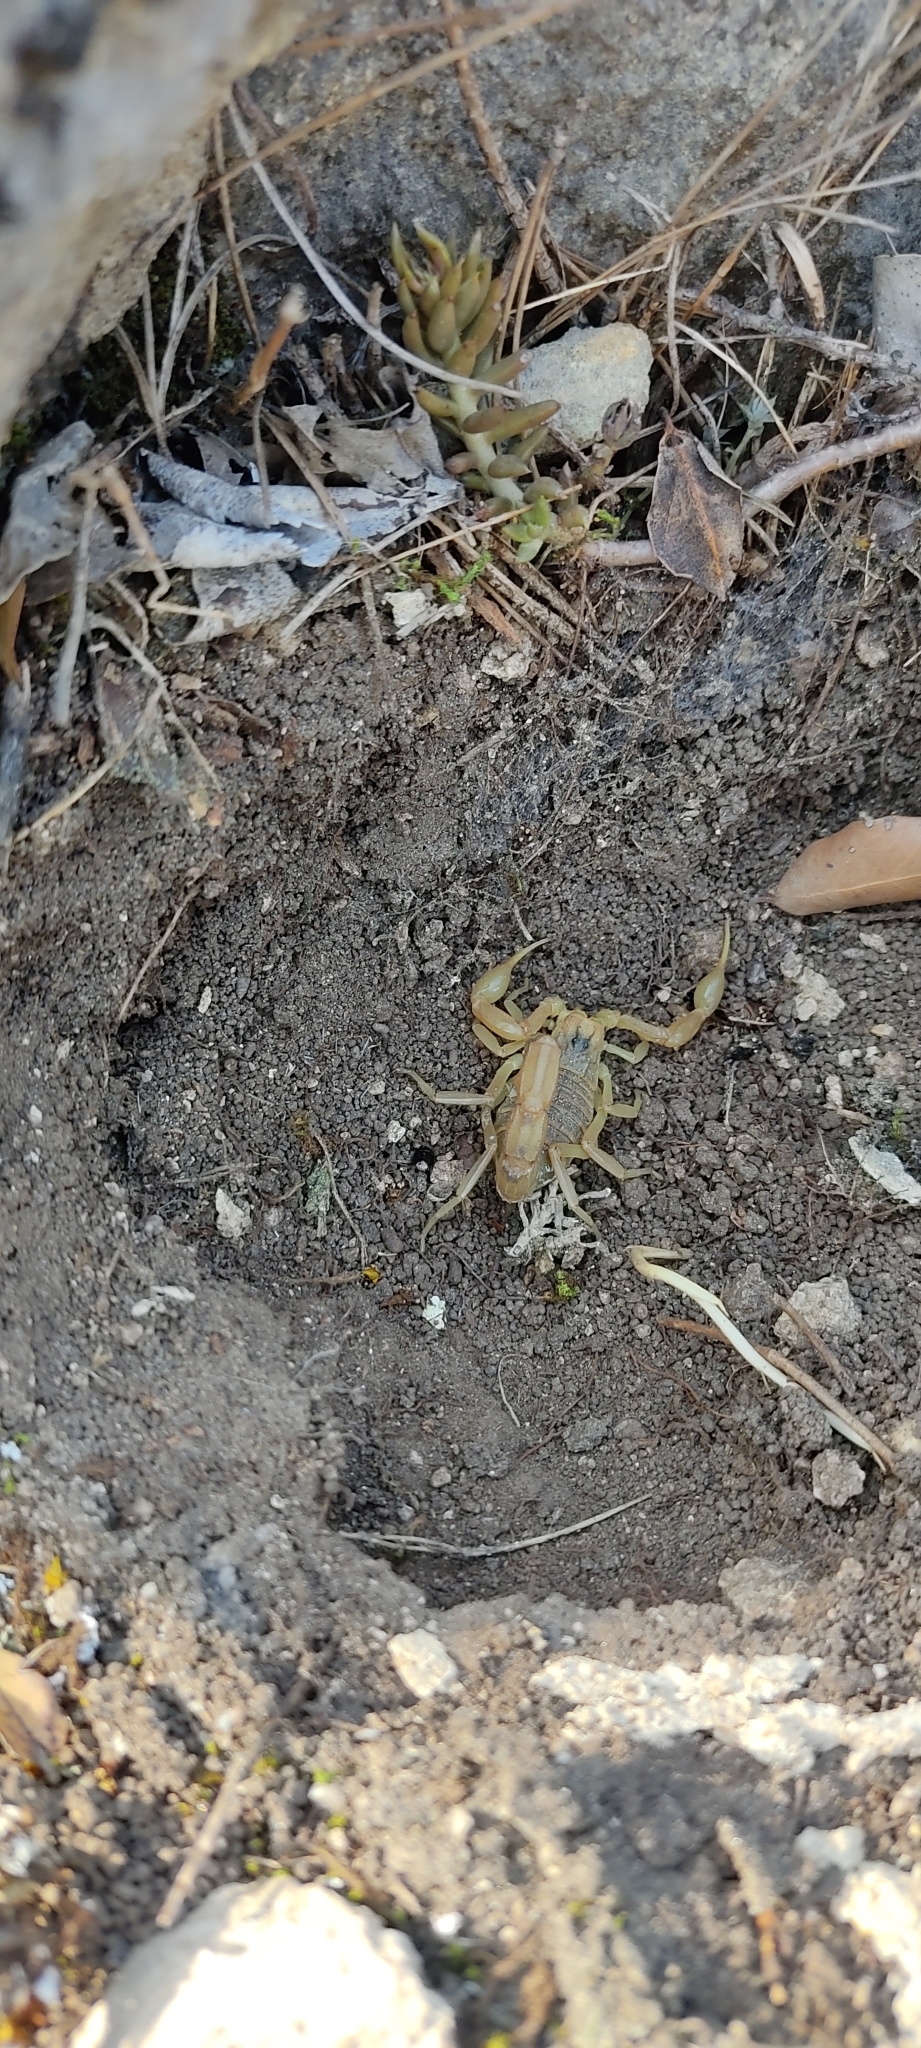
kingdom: Animalia
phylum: Arthropoda
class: Arachnida
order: Scorpiones
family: Buthidae
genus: Buthus
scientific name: Buthus occitanus
